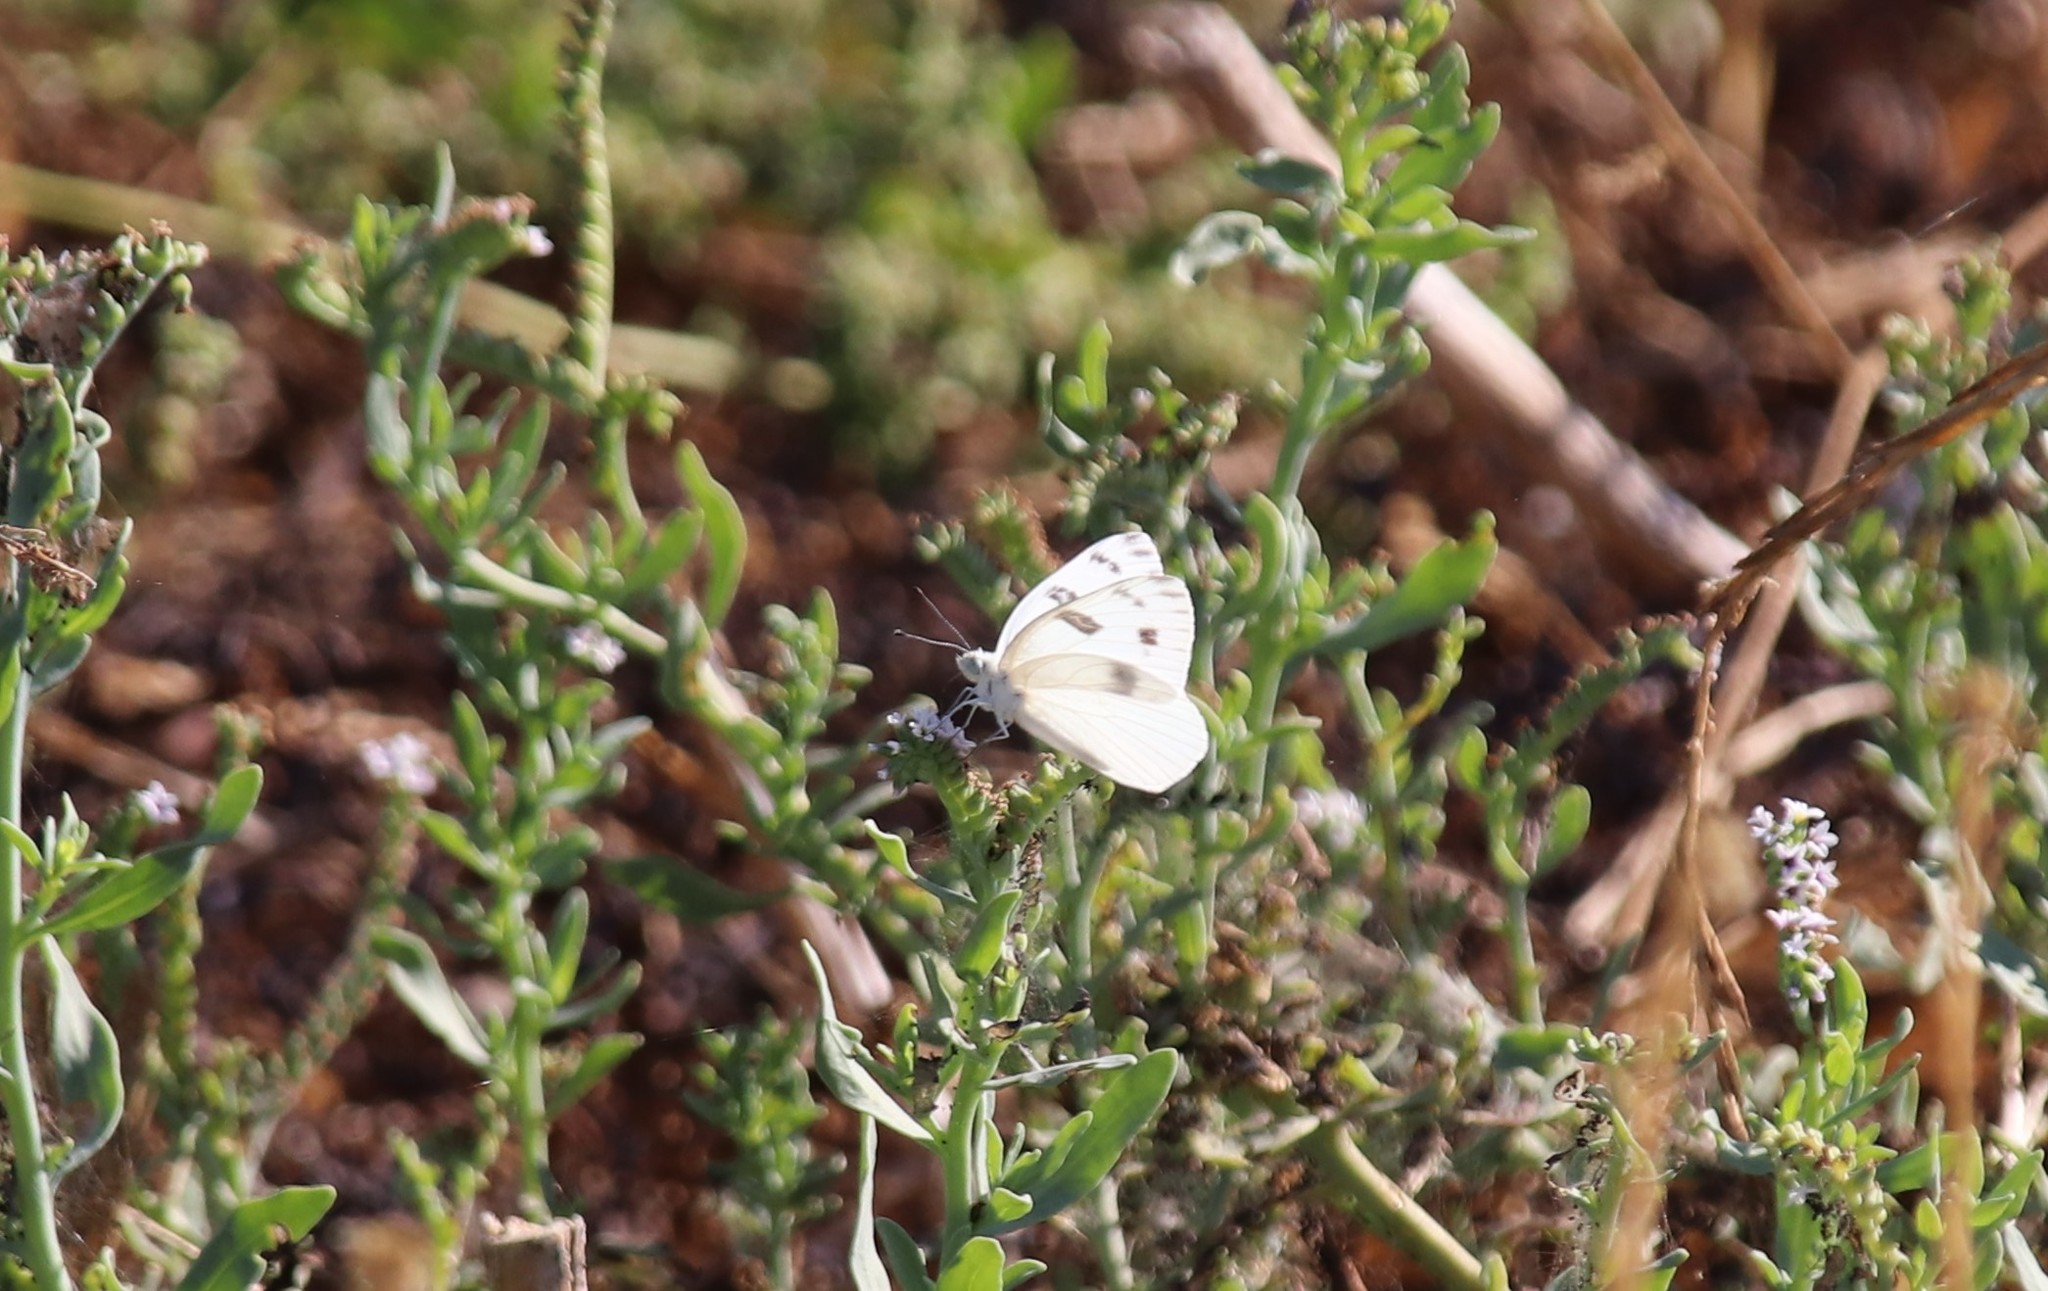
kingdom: Animalia
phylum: Arthropoda
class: Insecta
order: Lepidoptera
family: Pieridae
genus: Pontia
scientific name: Pontia protodice
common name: Checkered white
